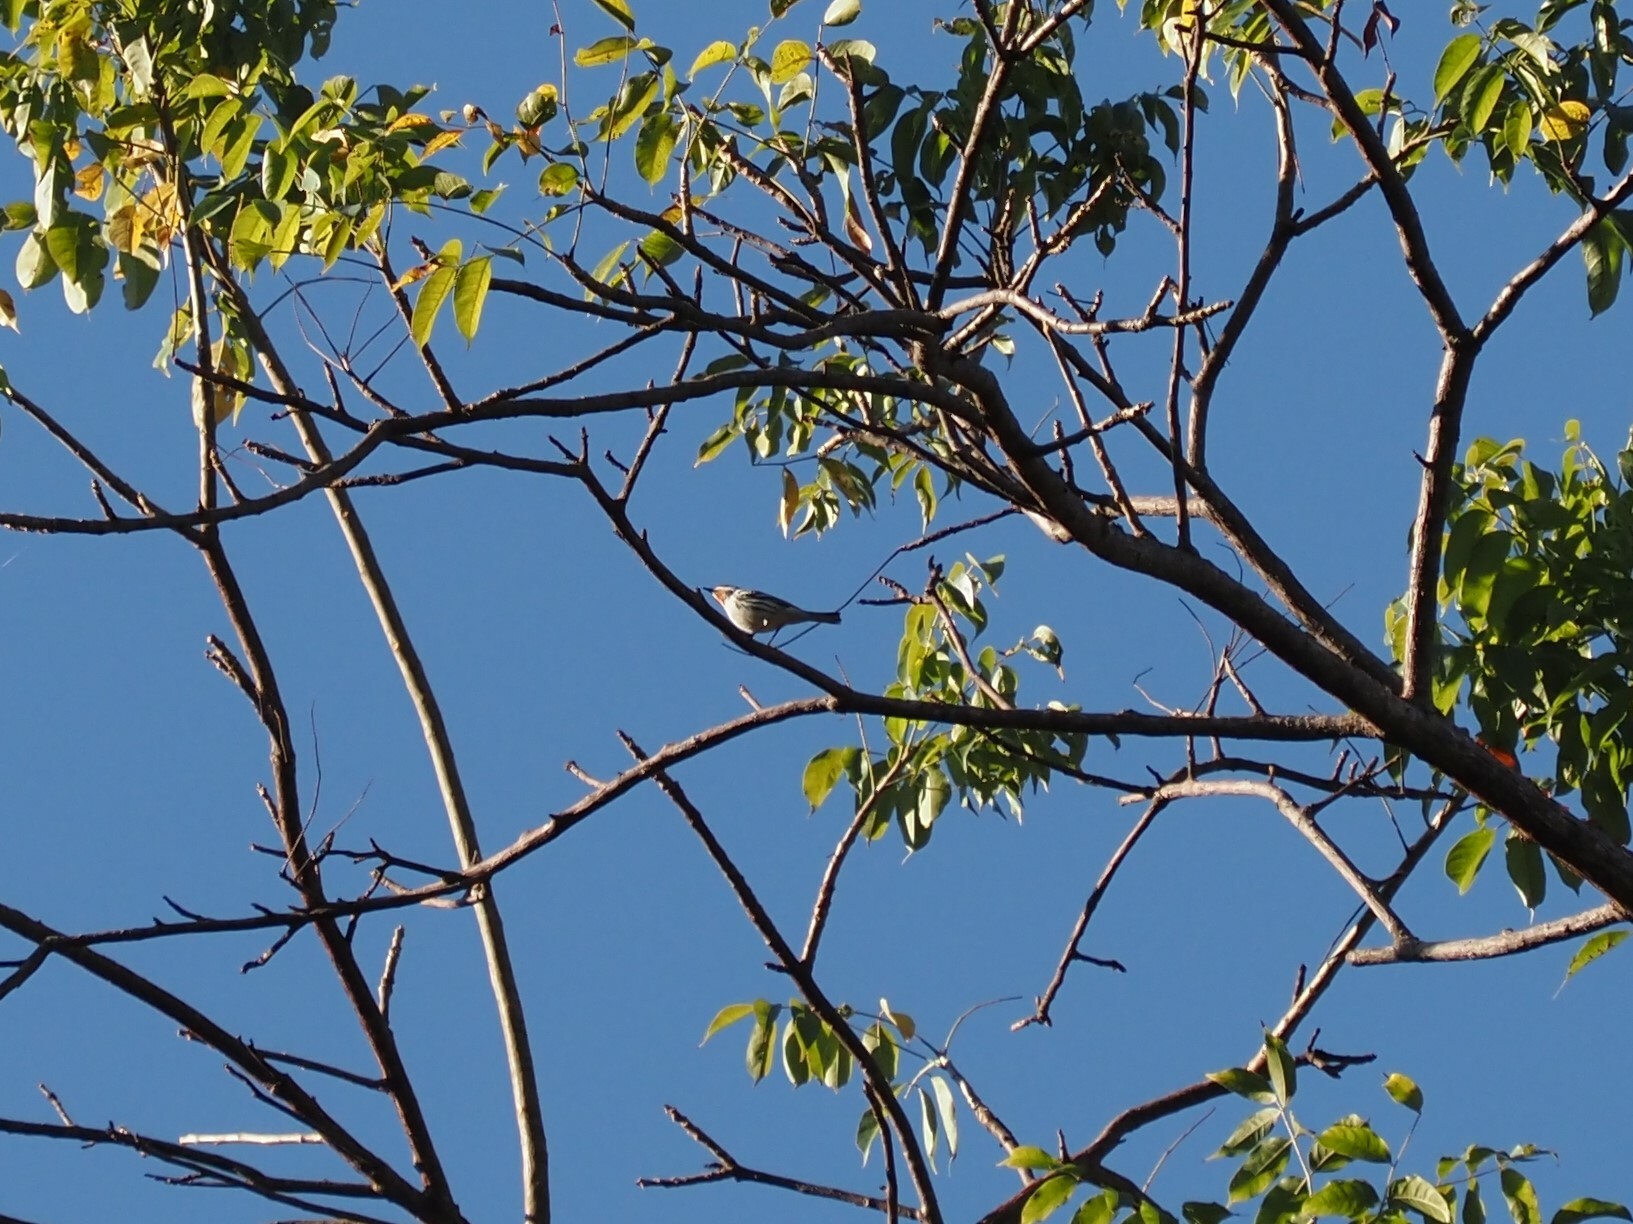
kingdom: Animalia
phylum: Chordata
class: Aves
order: Passeriformes
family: Parulidae
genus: Setophaga
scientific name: Setophaga nigrescens
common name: Black-throated gray warbler
